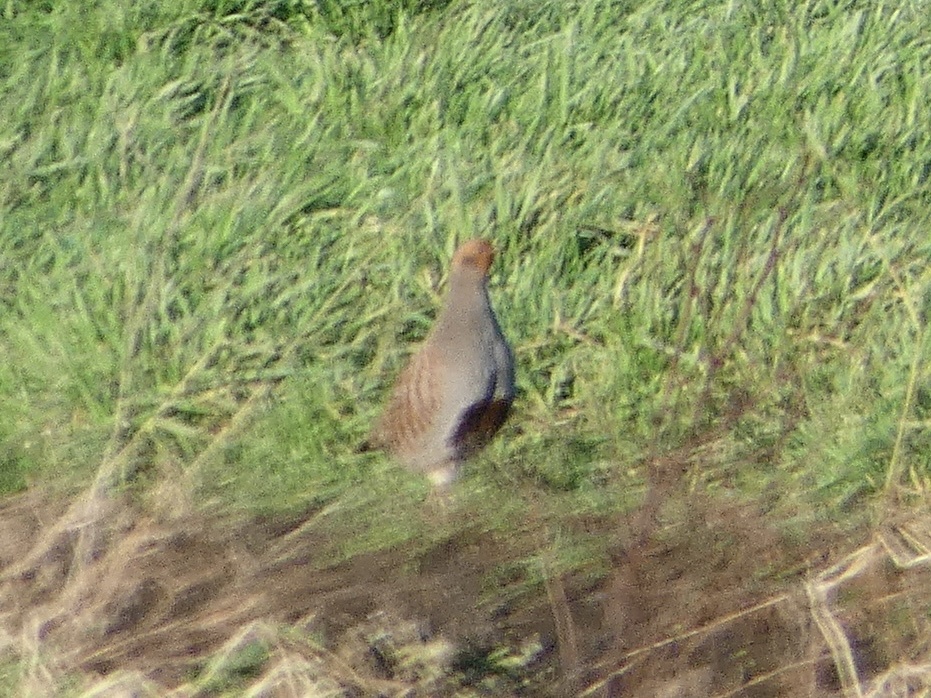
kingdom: Animalia
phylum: Chordata
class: Aves
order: Galliformes
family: Phasianidae
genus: Perdix
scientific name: Perdix perdix
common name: Grey partridge
